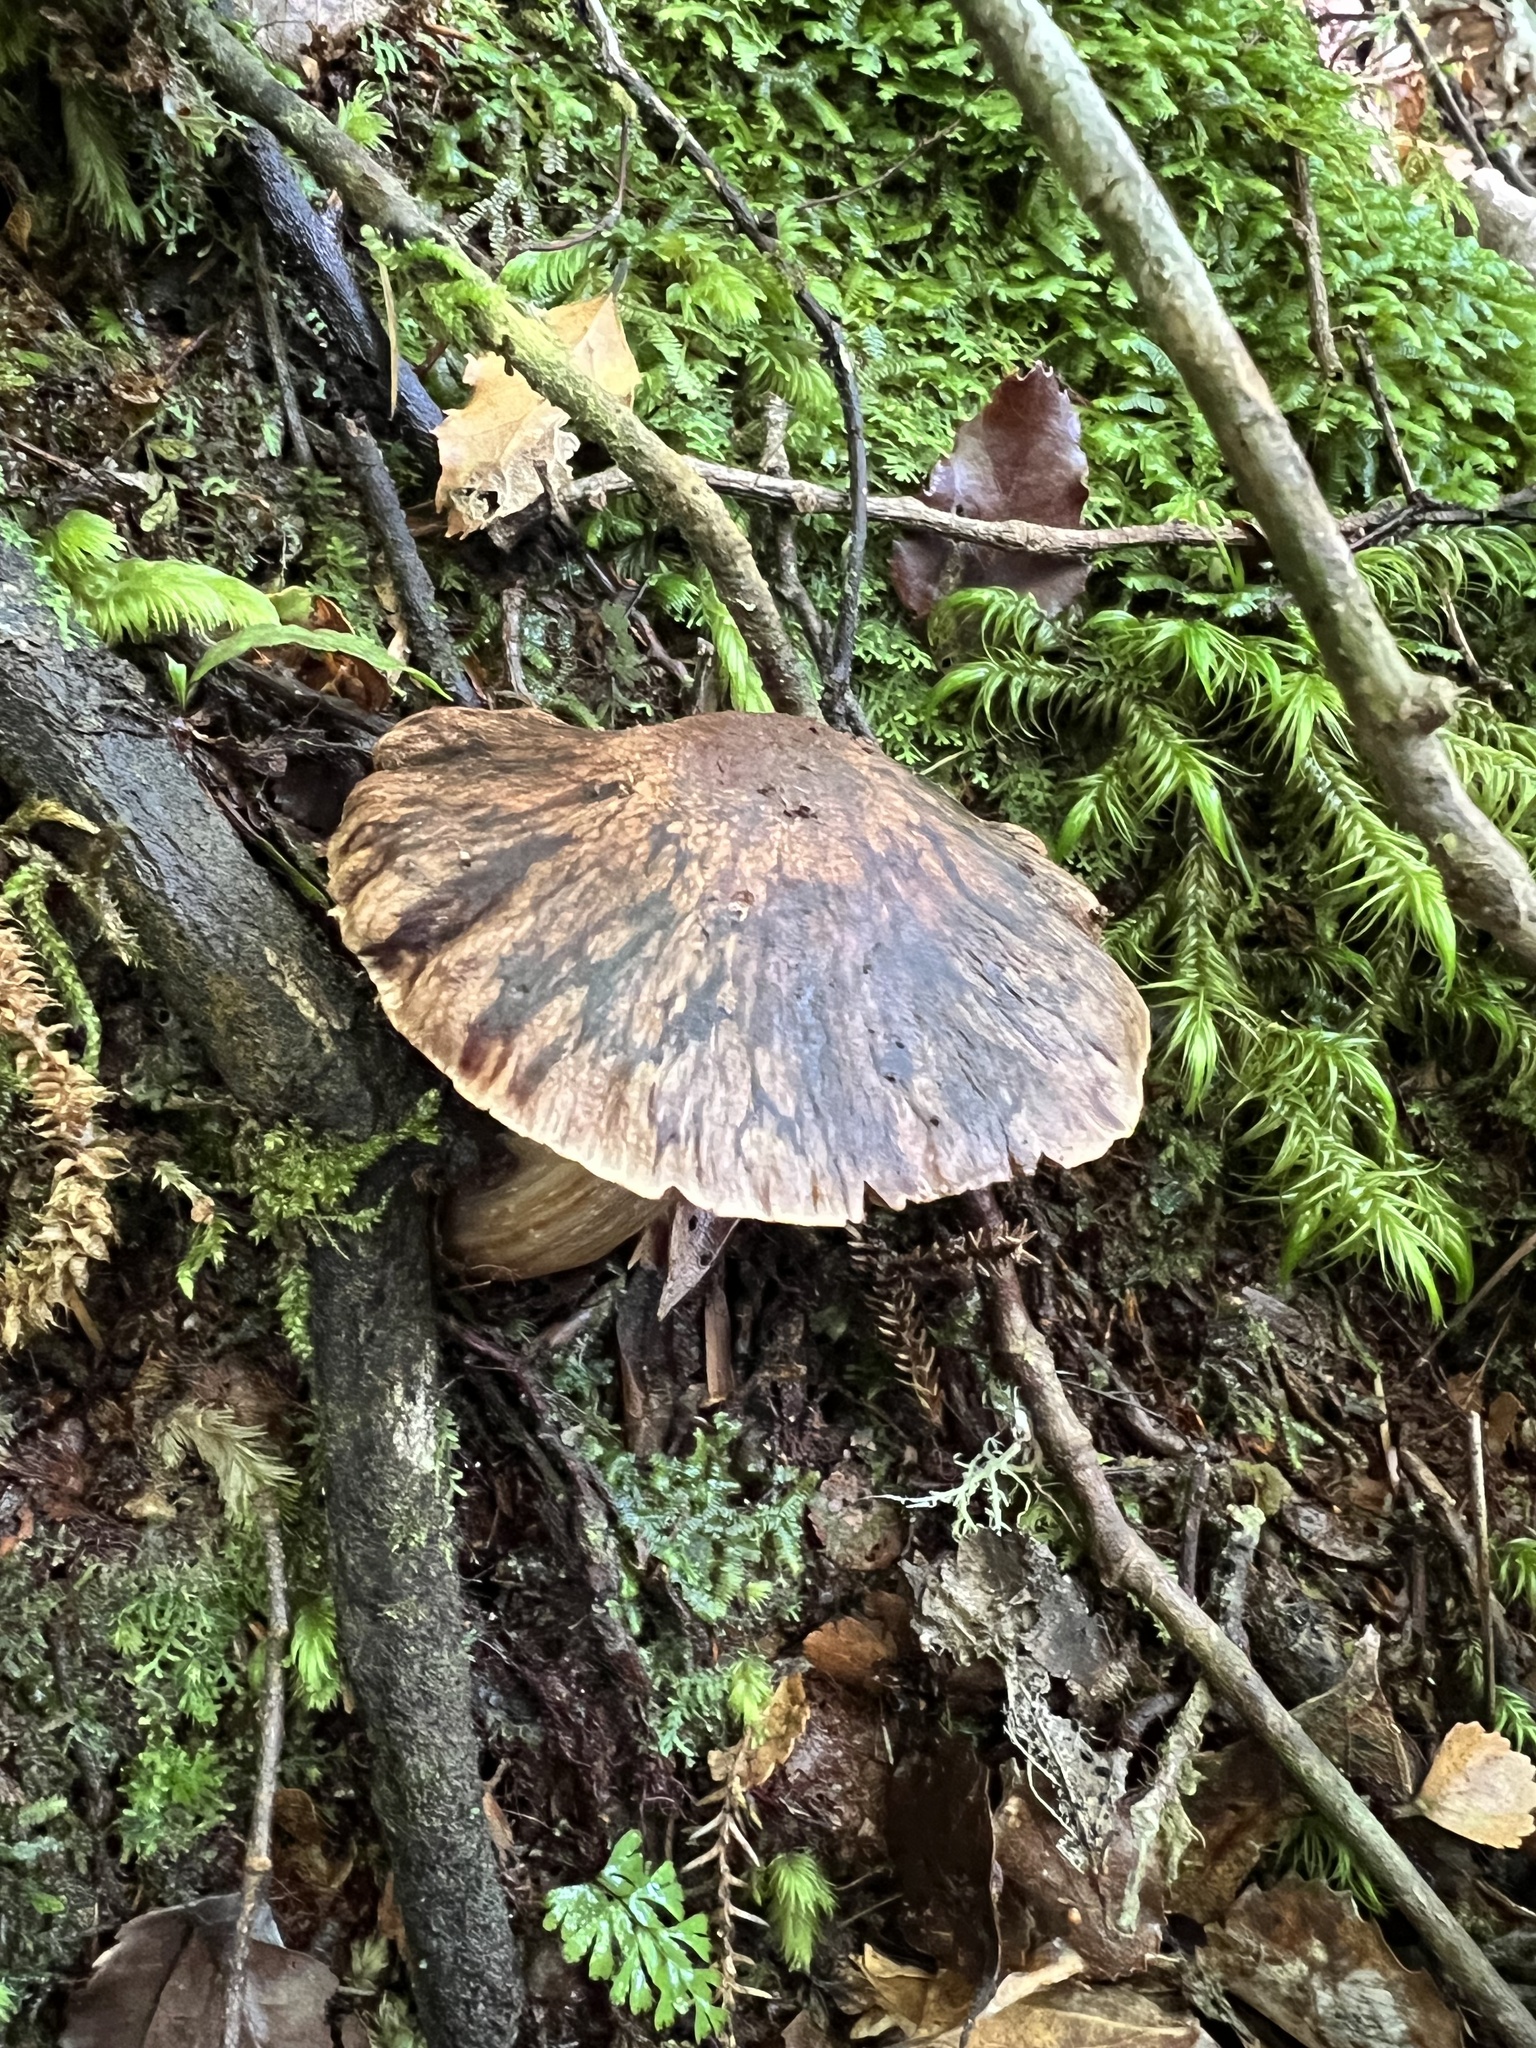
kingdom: Fungi
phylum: Basidiomycota
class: Agaricomycetes
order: Agaricales
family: Cortinariaceae
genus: Cortinarius
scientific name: Cortinarius dulciolens
